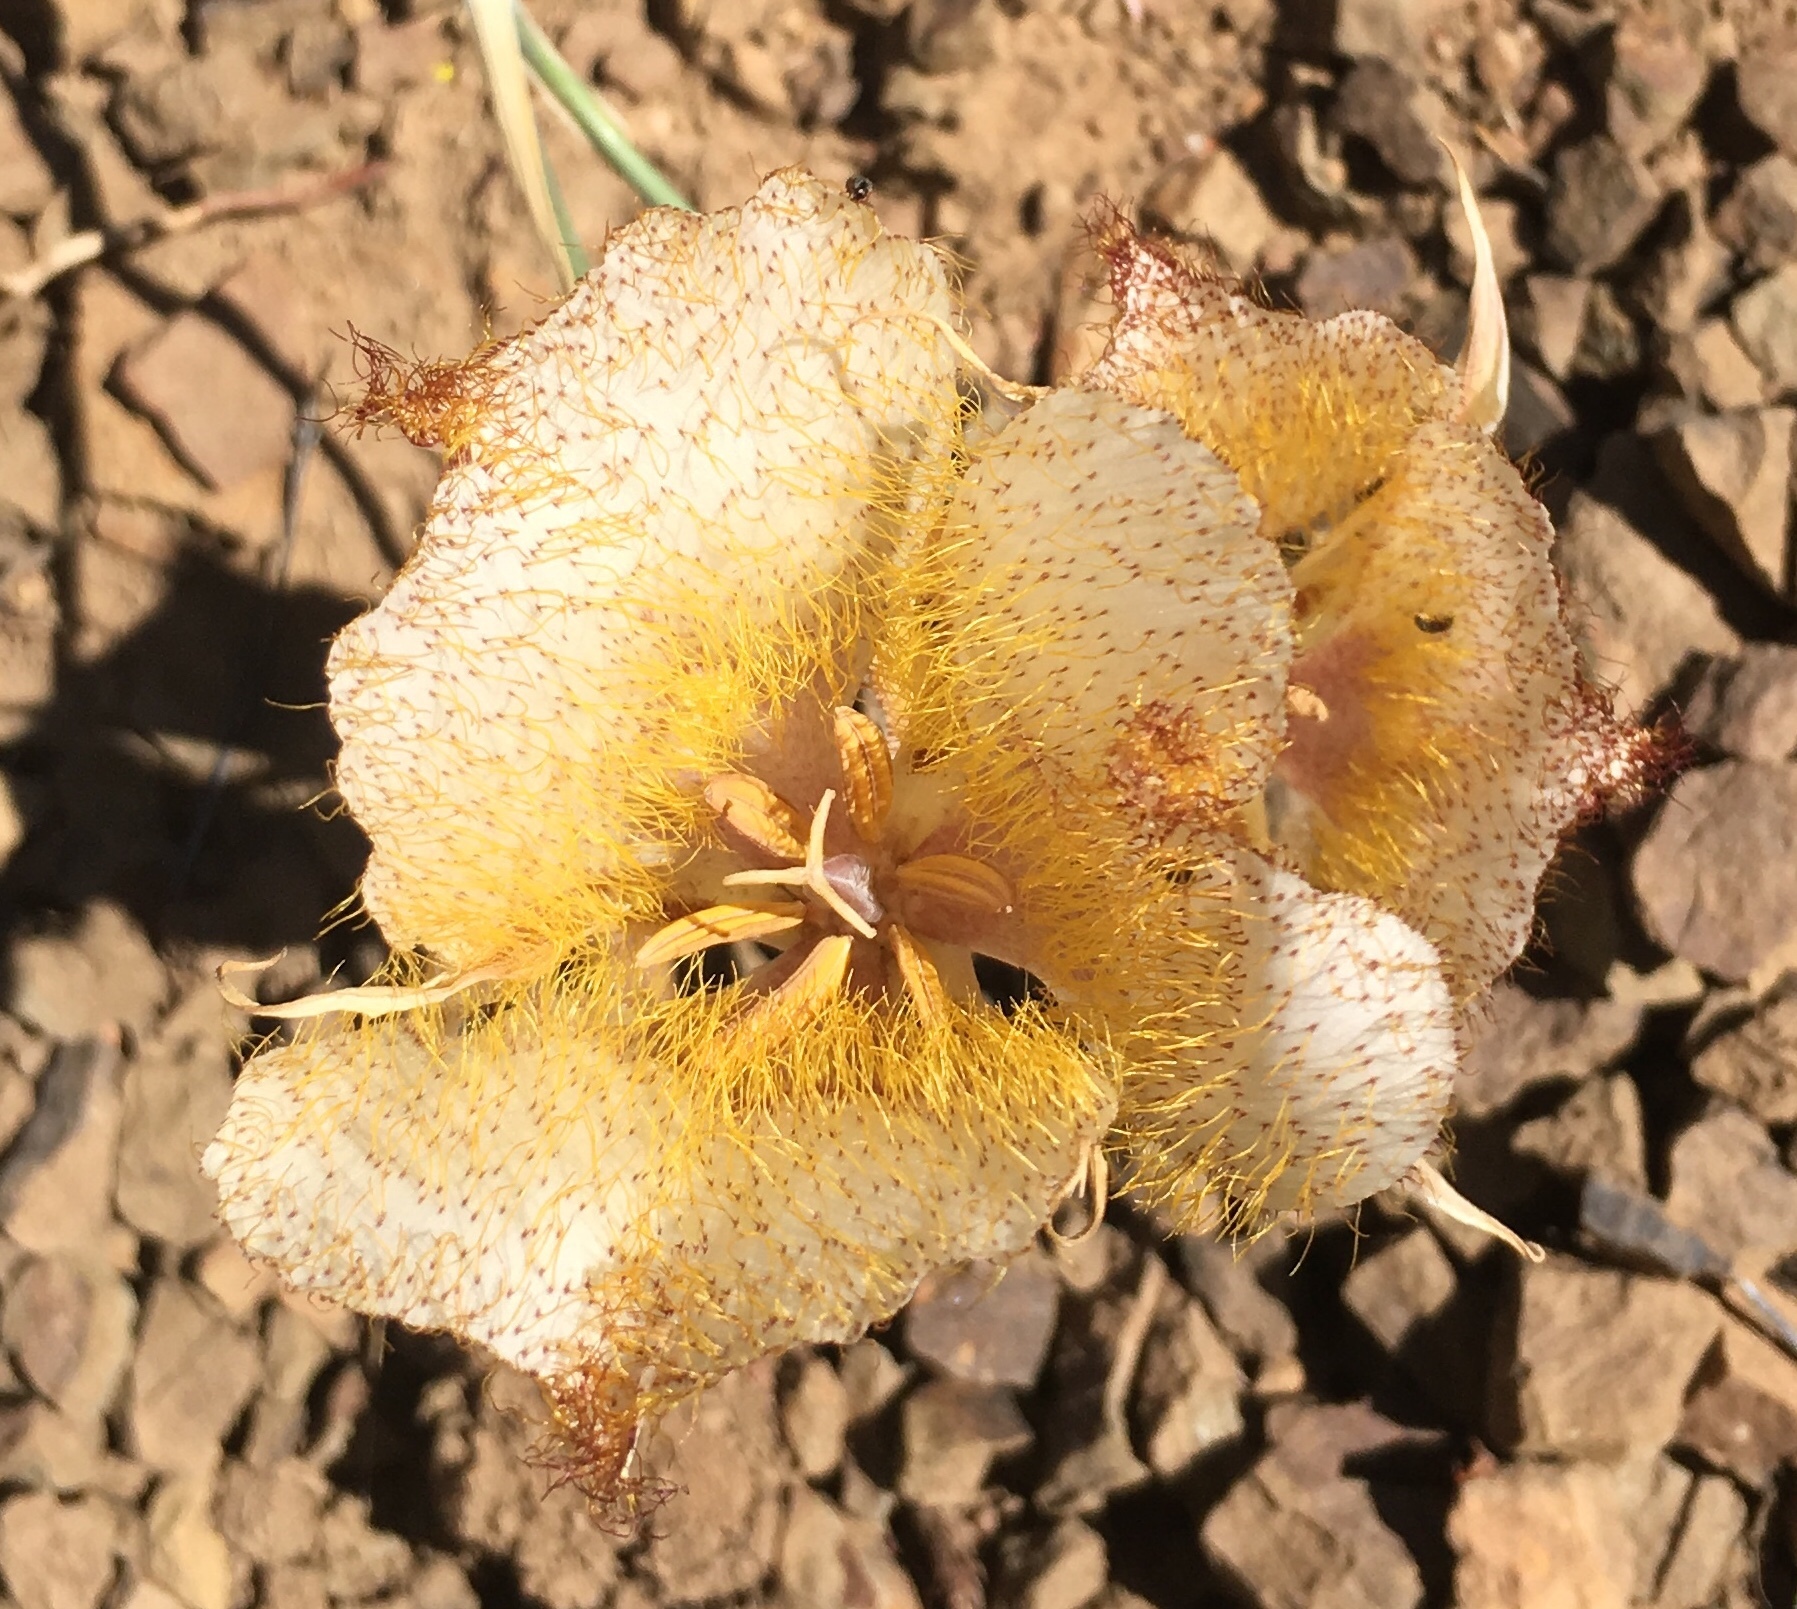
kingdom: Plantae
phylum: Tracheophyta
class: Liliopsida
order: Liliales
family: Liliaceae
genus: Calochortus
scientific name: Calochortus fimbriatus
